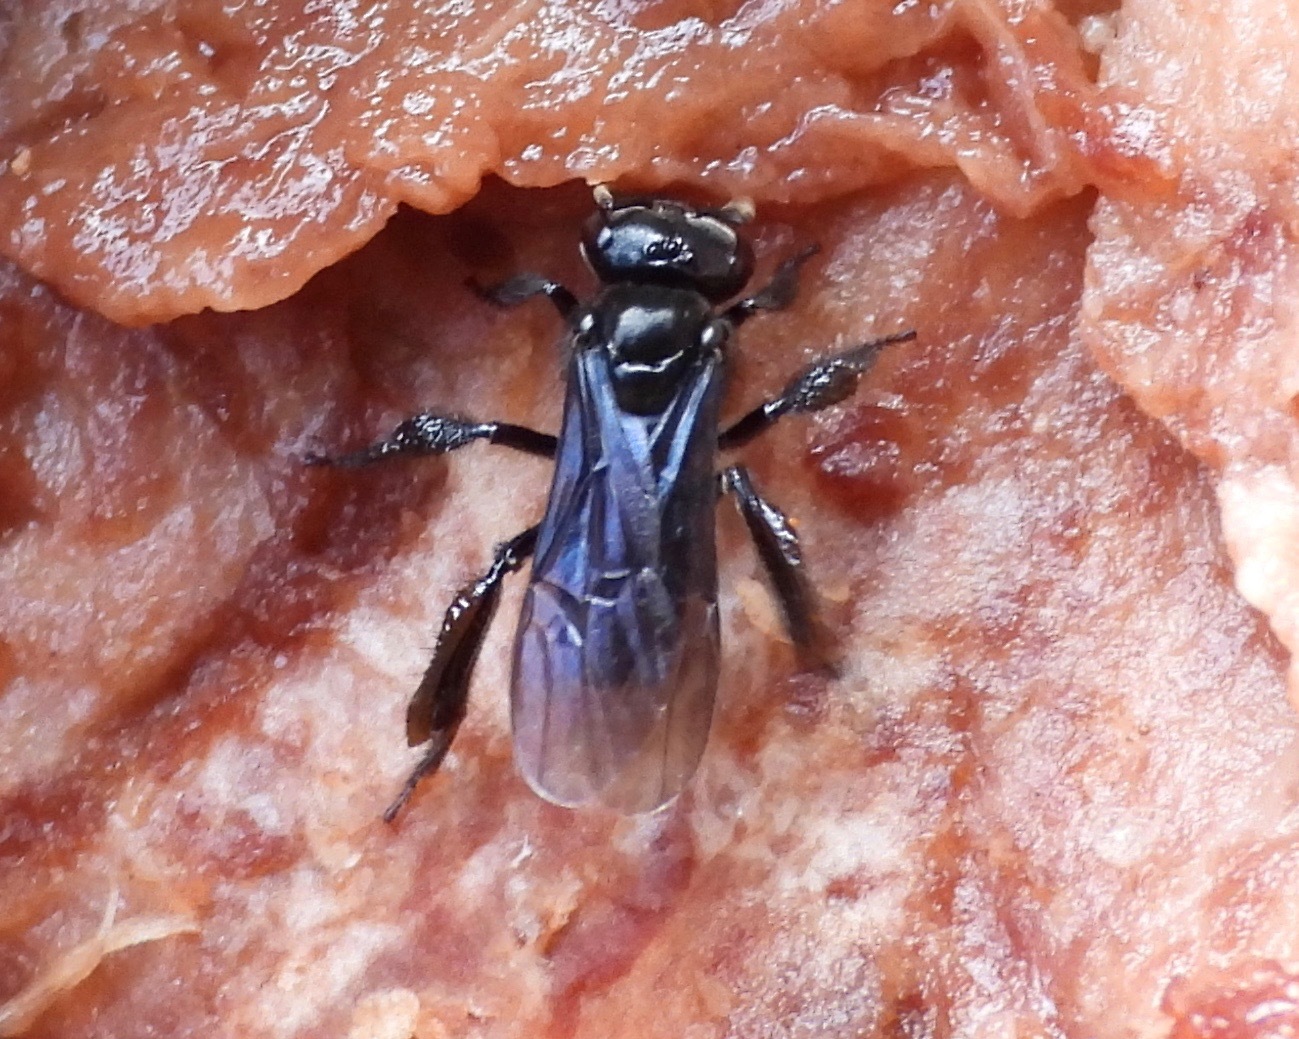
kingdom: Animalia
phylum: Arthropoda
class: Insecta
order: Hymenoptera
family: Apidae
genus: Trigona
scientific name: Trigona nigerrima
